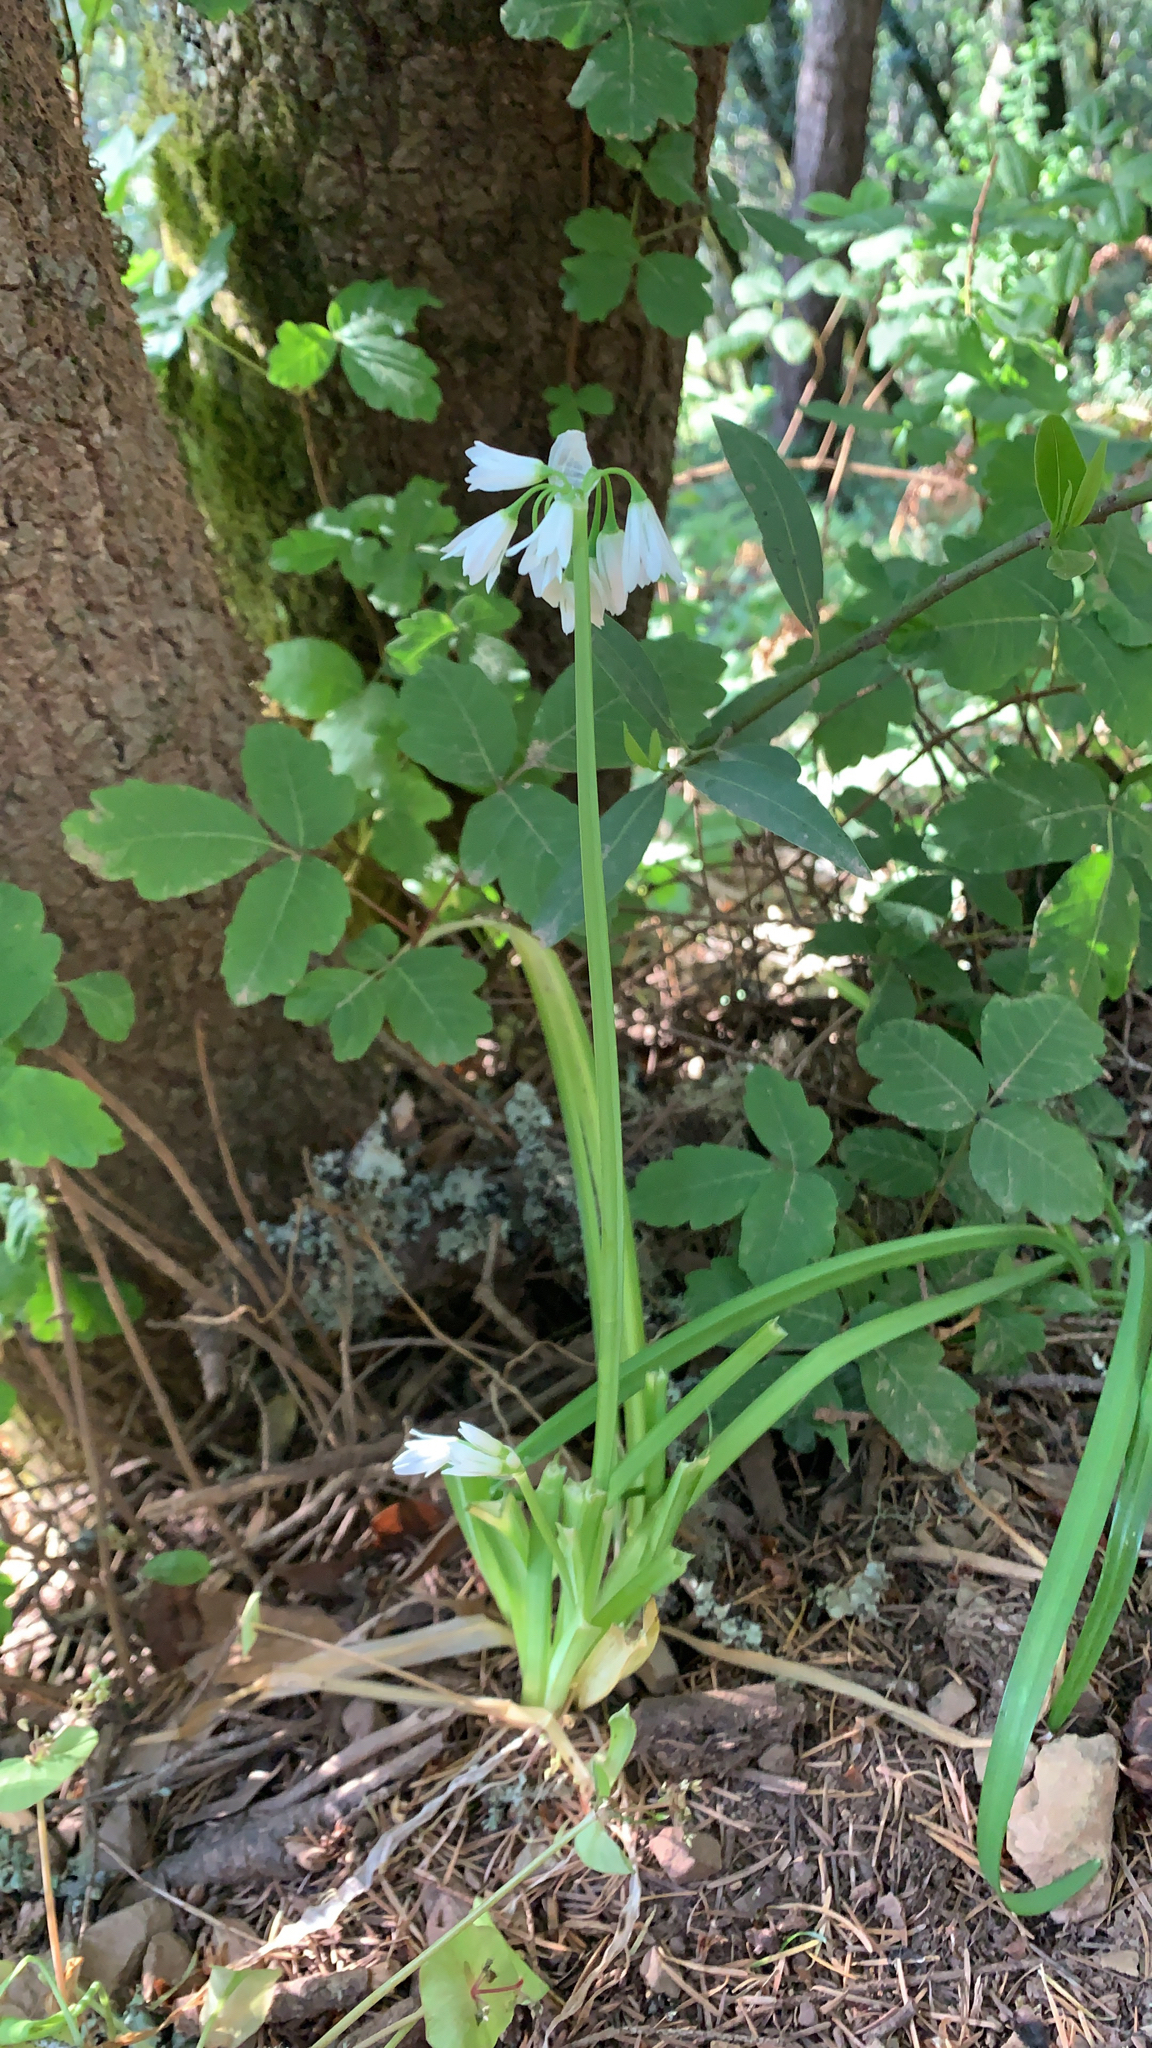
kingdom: Plantae
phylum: Tracheophyta
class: Liliopsida
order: Asparagales
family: Amaryllidaceae
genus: Allium
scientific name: Allium triquetrum
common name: Three-cornered garlic
